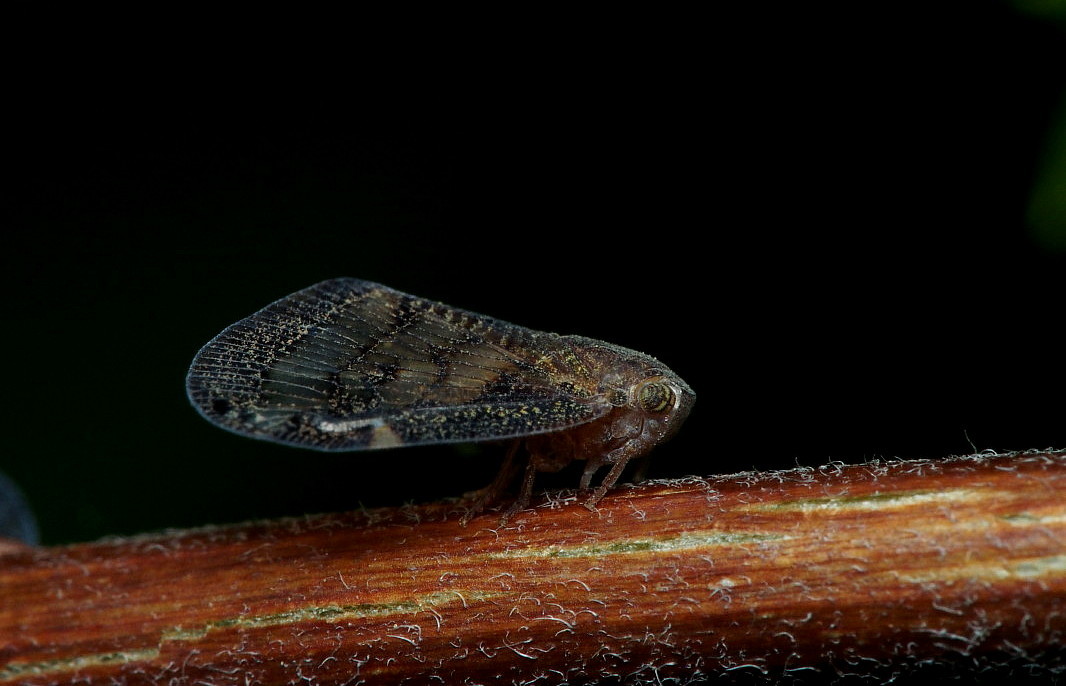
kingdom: Animalia
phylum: Arthropoda
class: Insecta
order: Hemiptera
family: Ricaniidae
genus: Scolypopa
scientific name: Scolypopa australis
